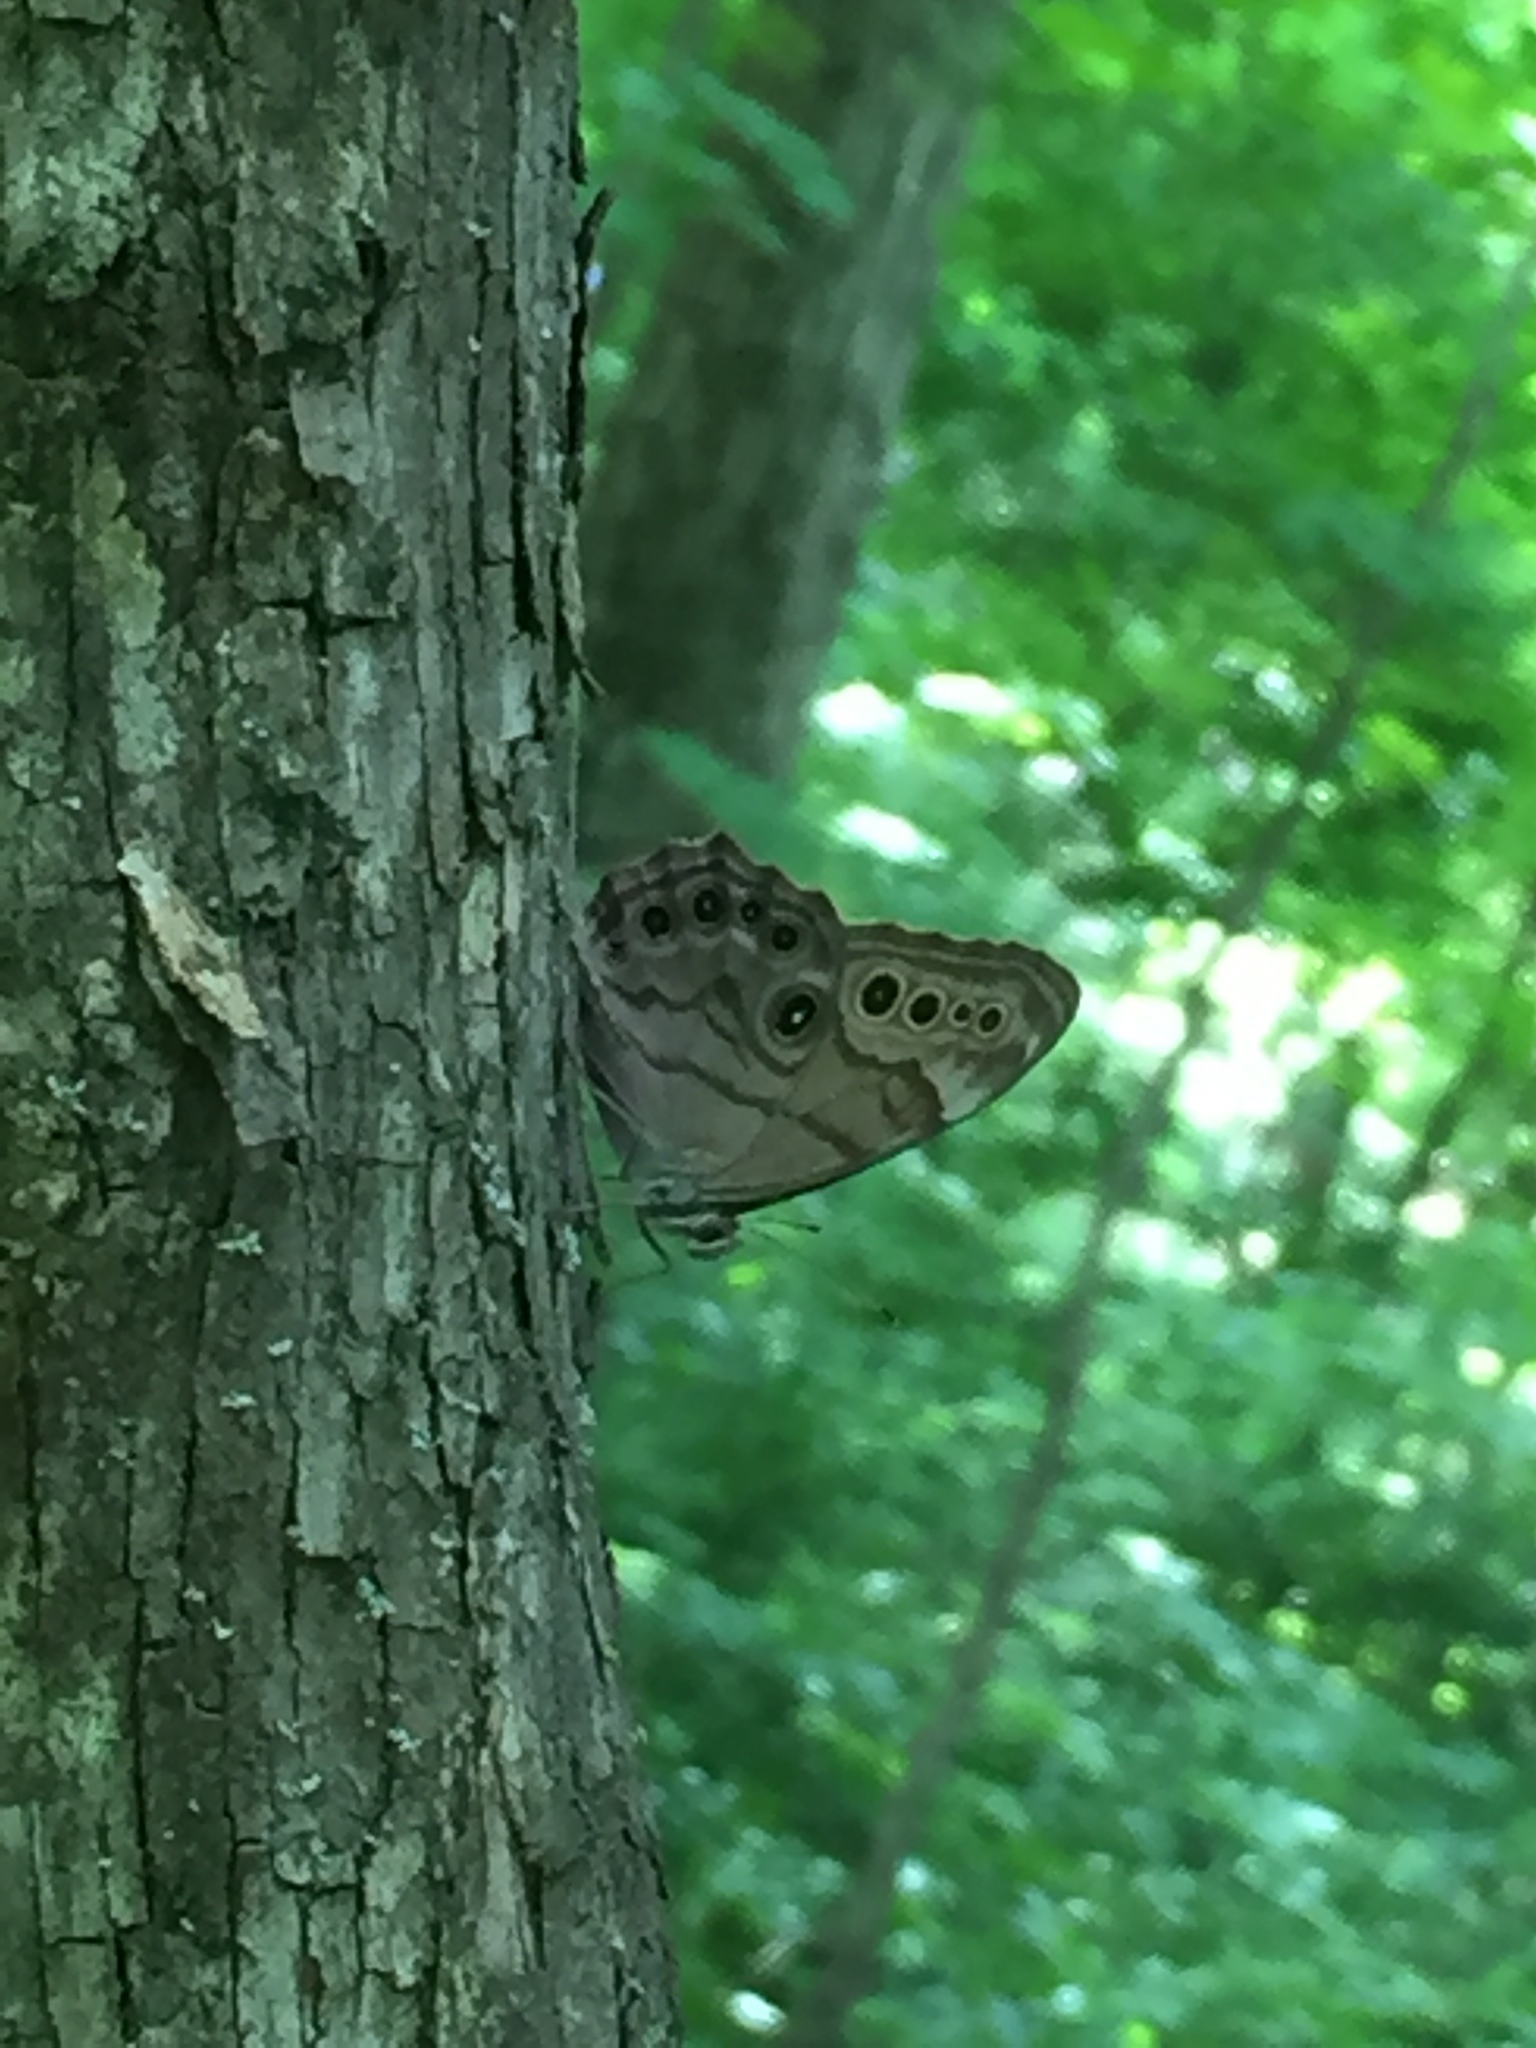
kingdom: Animalia
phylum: Arthropoda
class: Insecta
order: Lepidoptera
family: Nymphalidae
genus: Lethe
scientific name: Lethe anthedon
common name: Northern pearly-eye
